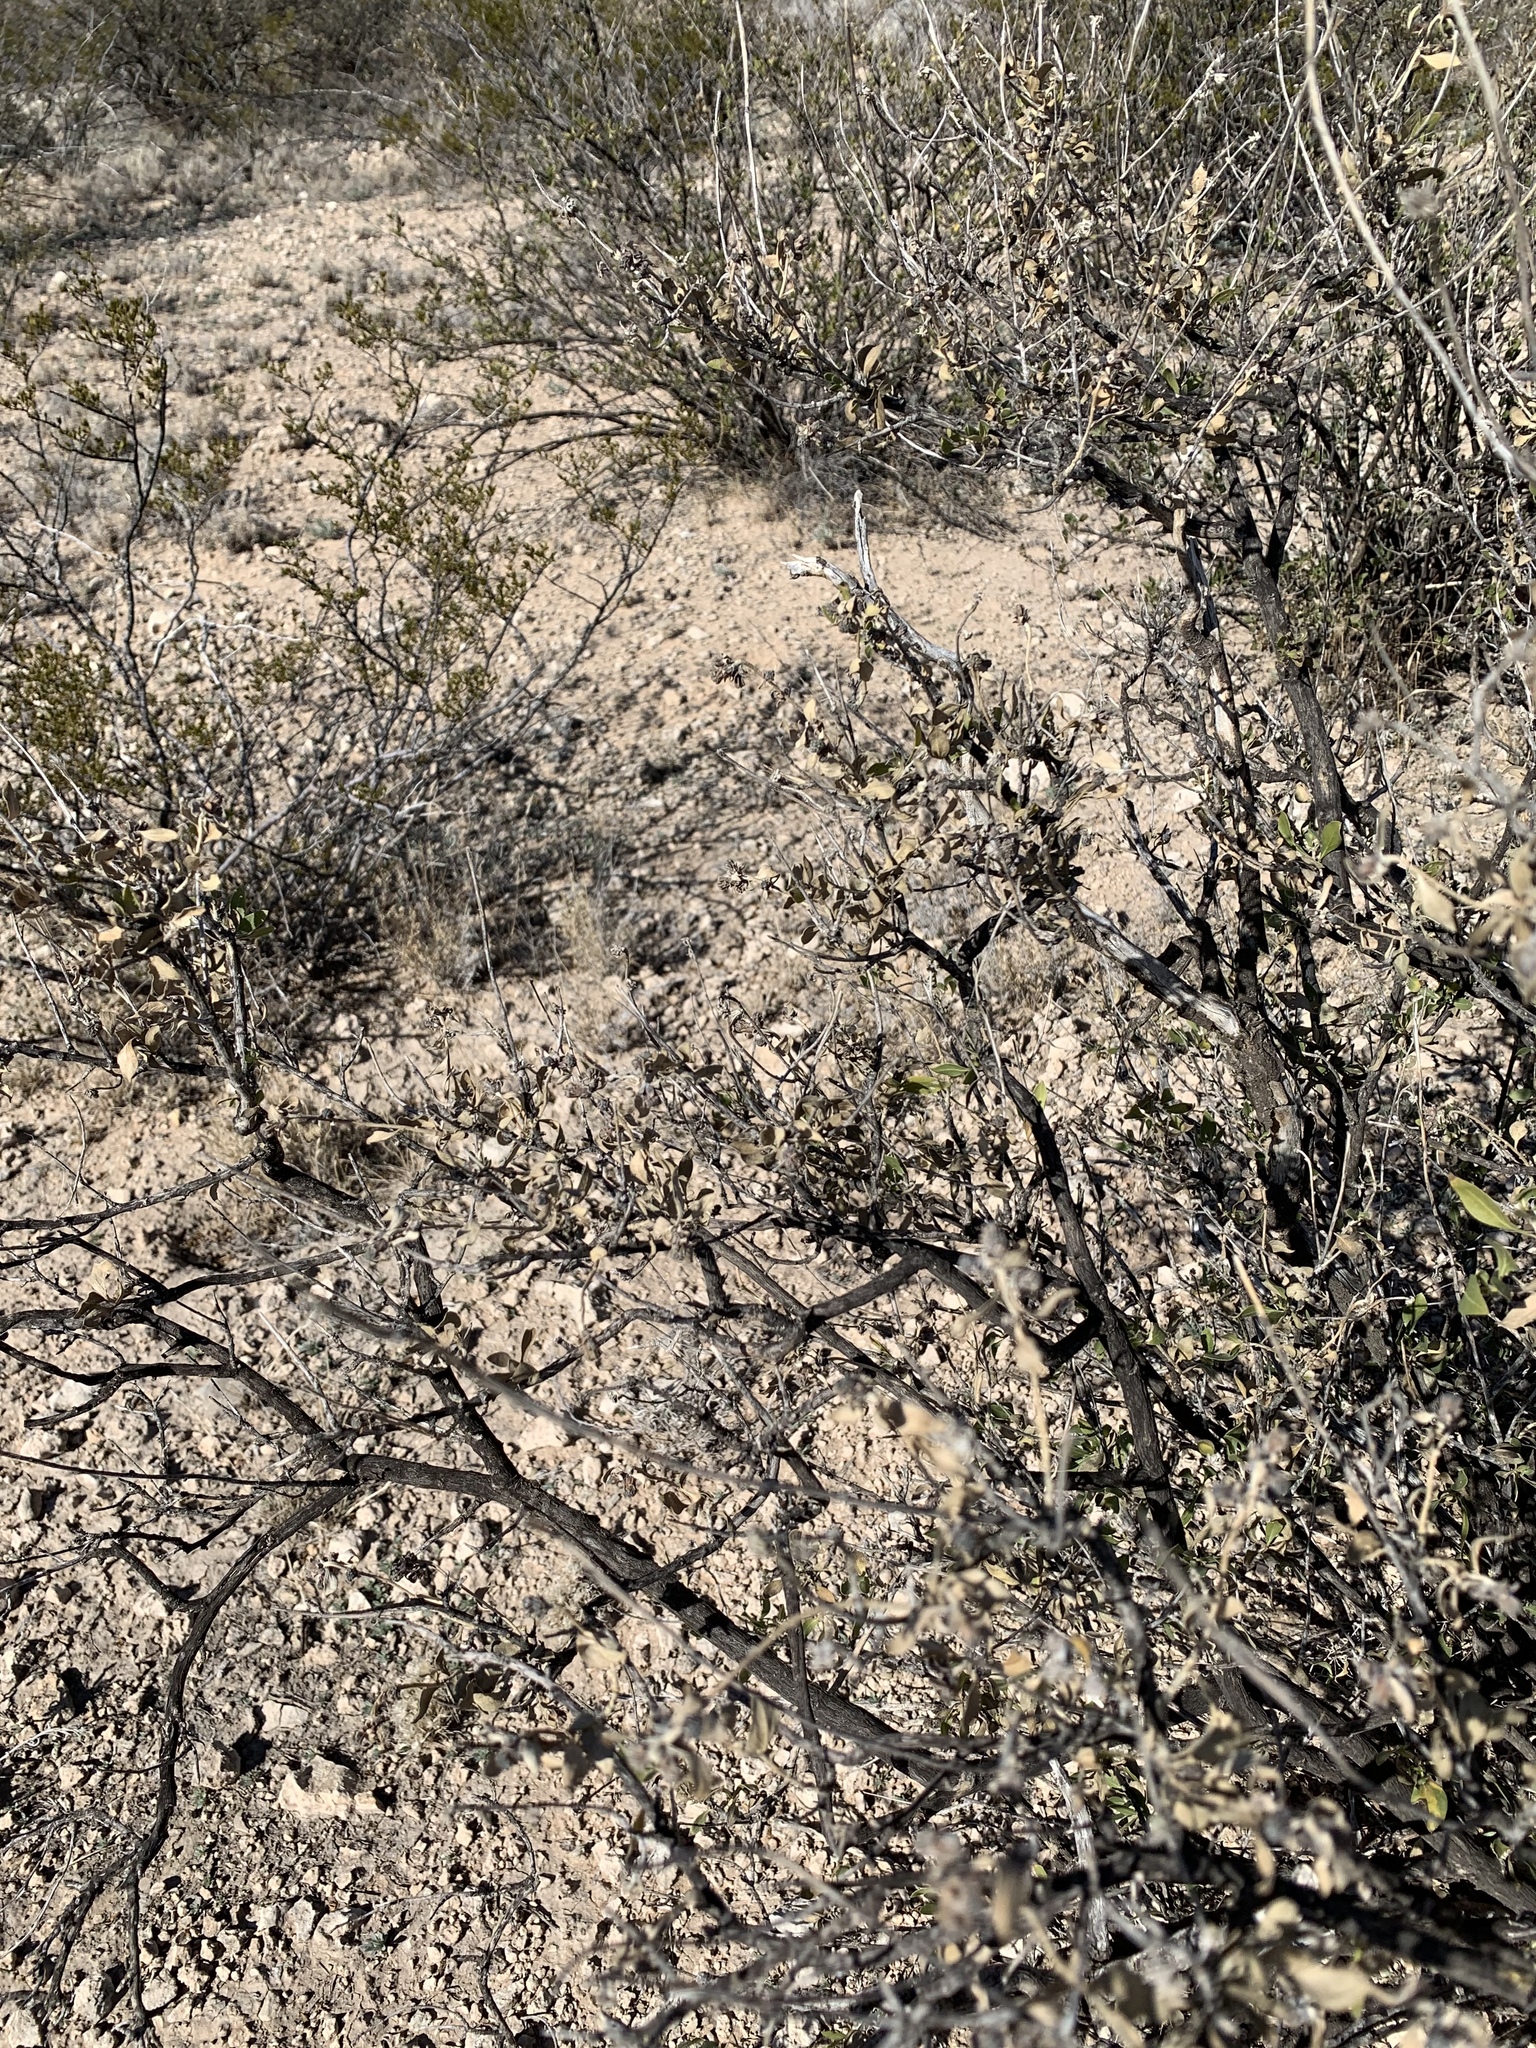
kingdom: Plantae
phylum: Tracheophyta
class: Magnoliopsida
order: Asterales
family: Asteraceae
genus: Flourensia
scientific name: Flourensia cernua
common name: Varnishbush
